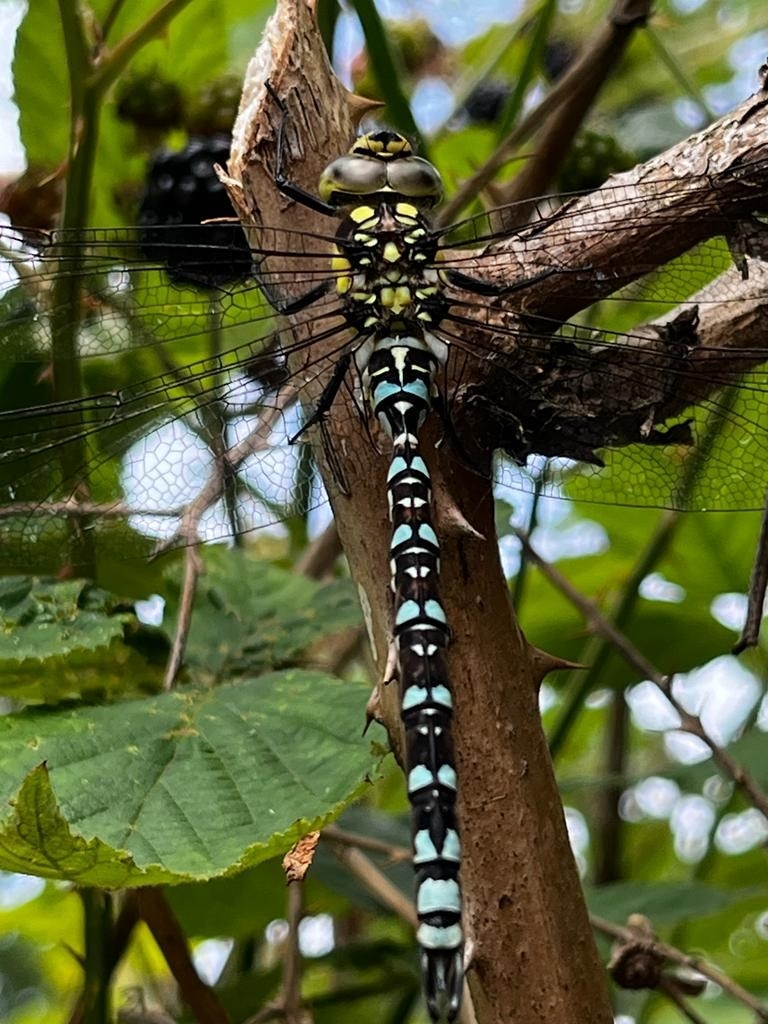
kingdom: Animalia
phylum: Arthropoda
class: Insecta
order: Odonata
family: Aeshnidae
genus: Aeshna
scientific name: Aeshna cyanea
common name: Southern hawker
